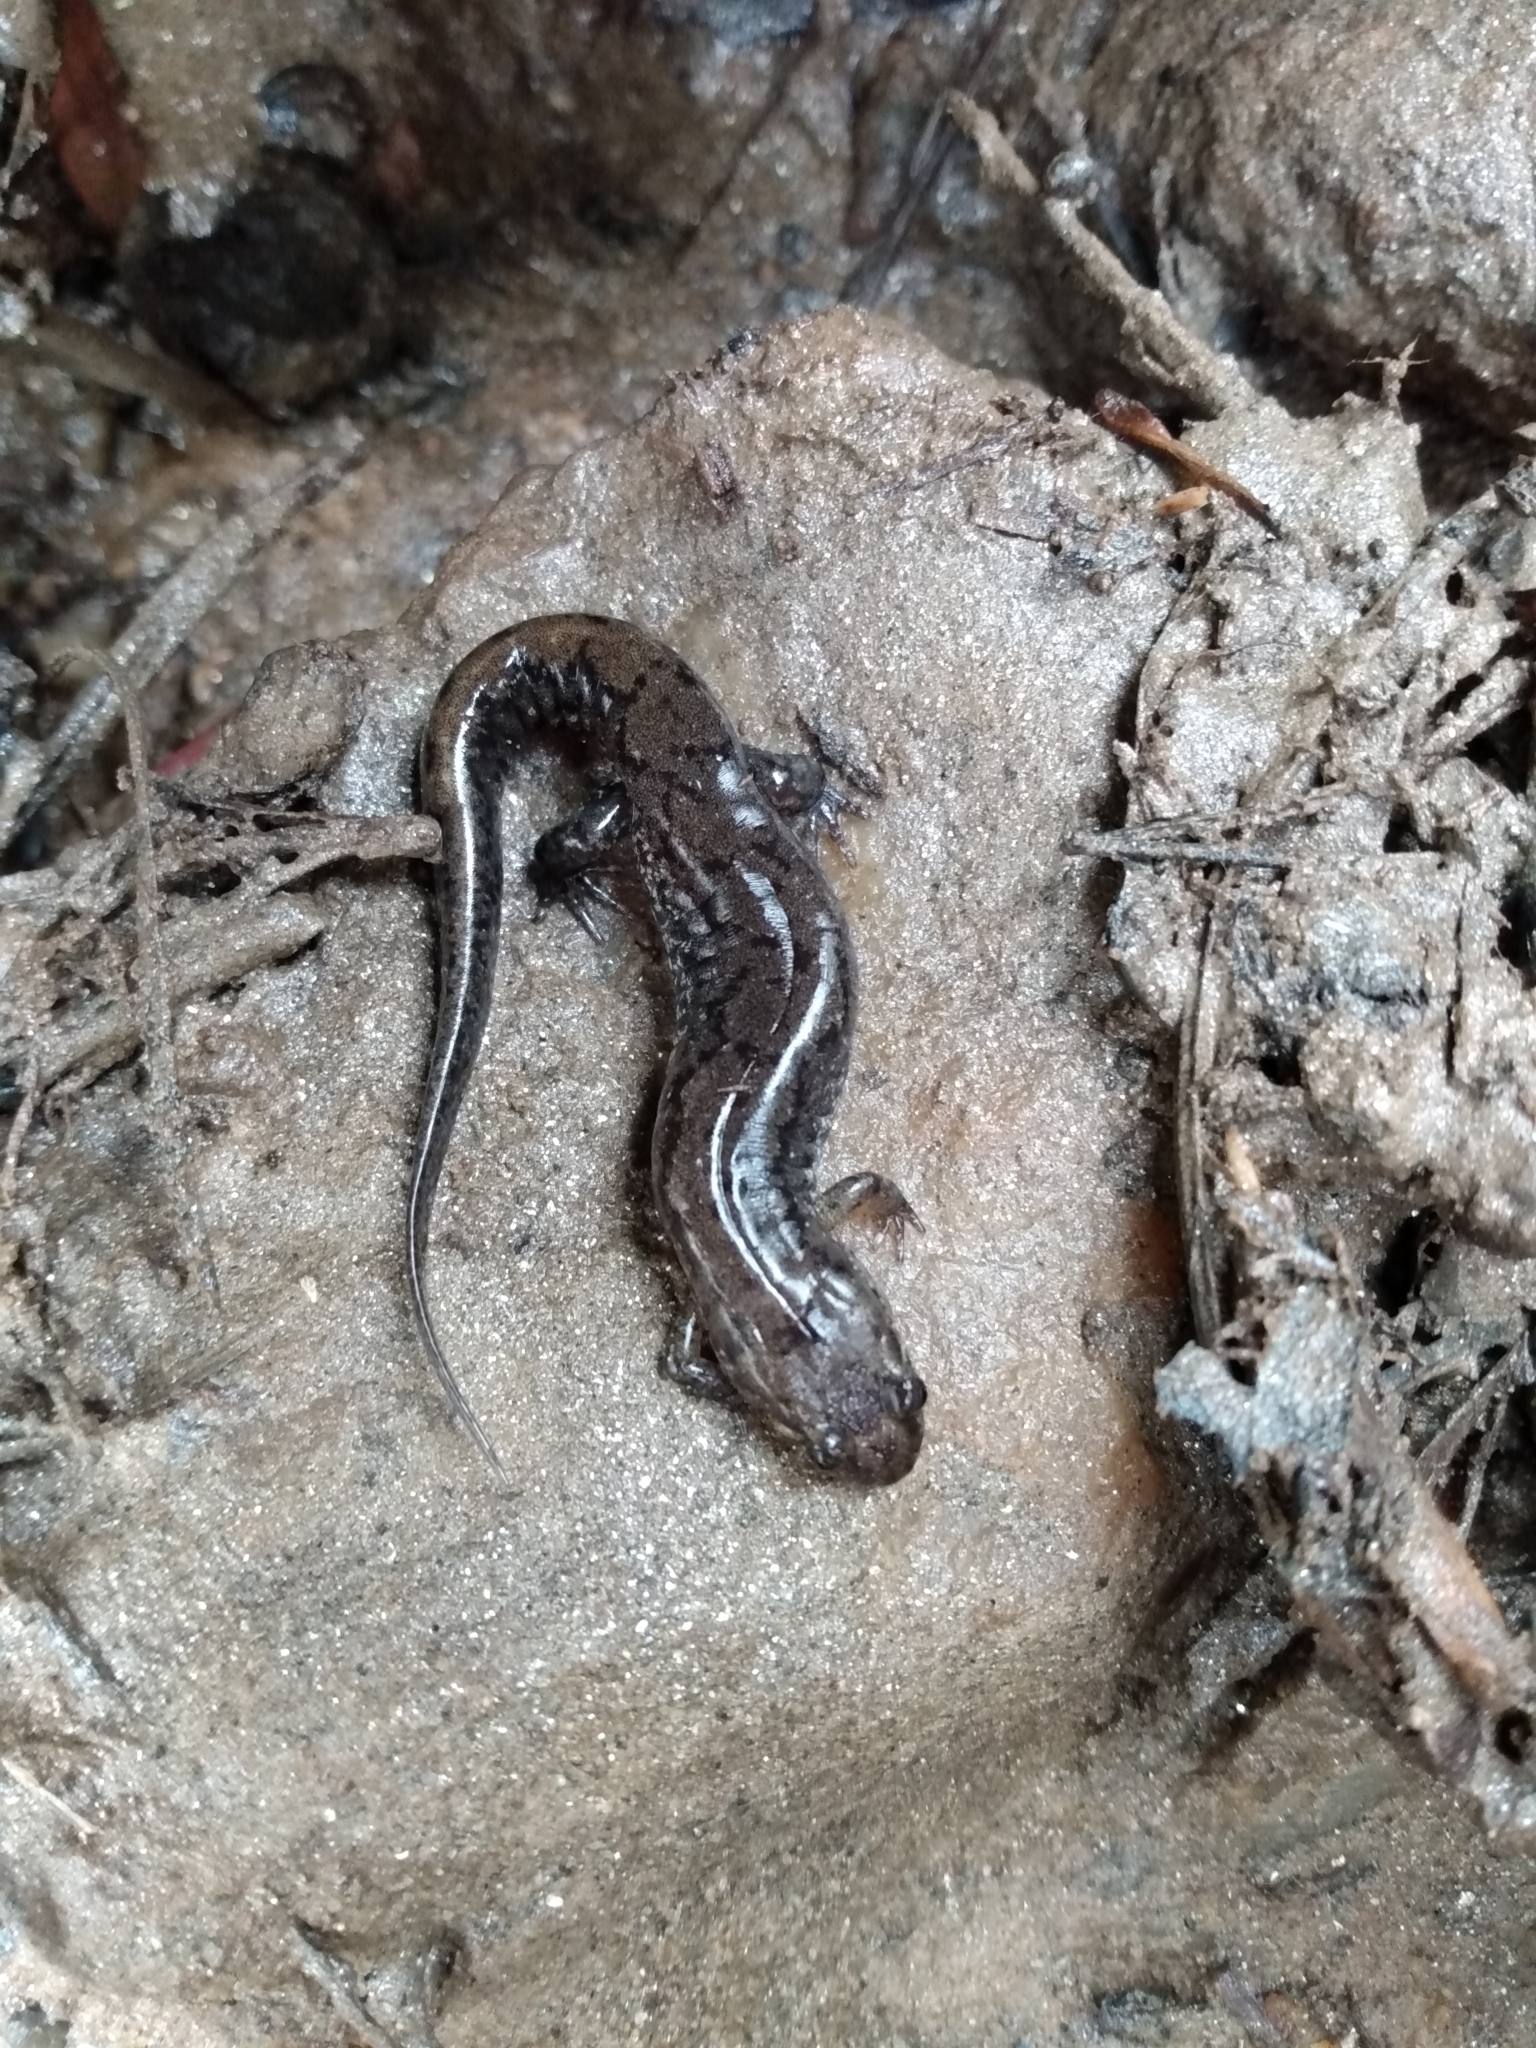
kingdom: Animalia
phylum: Chordata
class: Amphibia
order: Caudata
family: Plethodontidae
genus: Desmognathus
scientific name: Desmognathus ocoee
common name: Ocoee salamander
